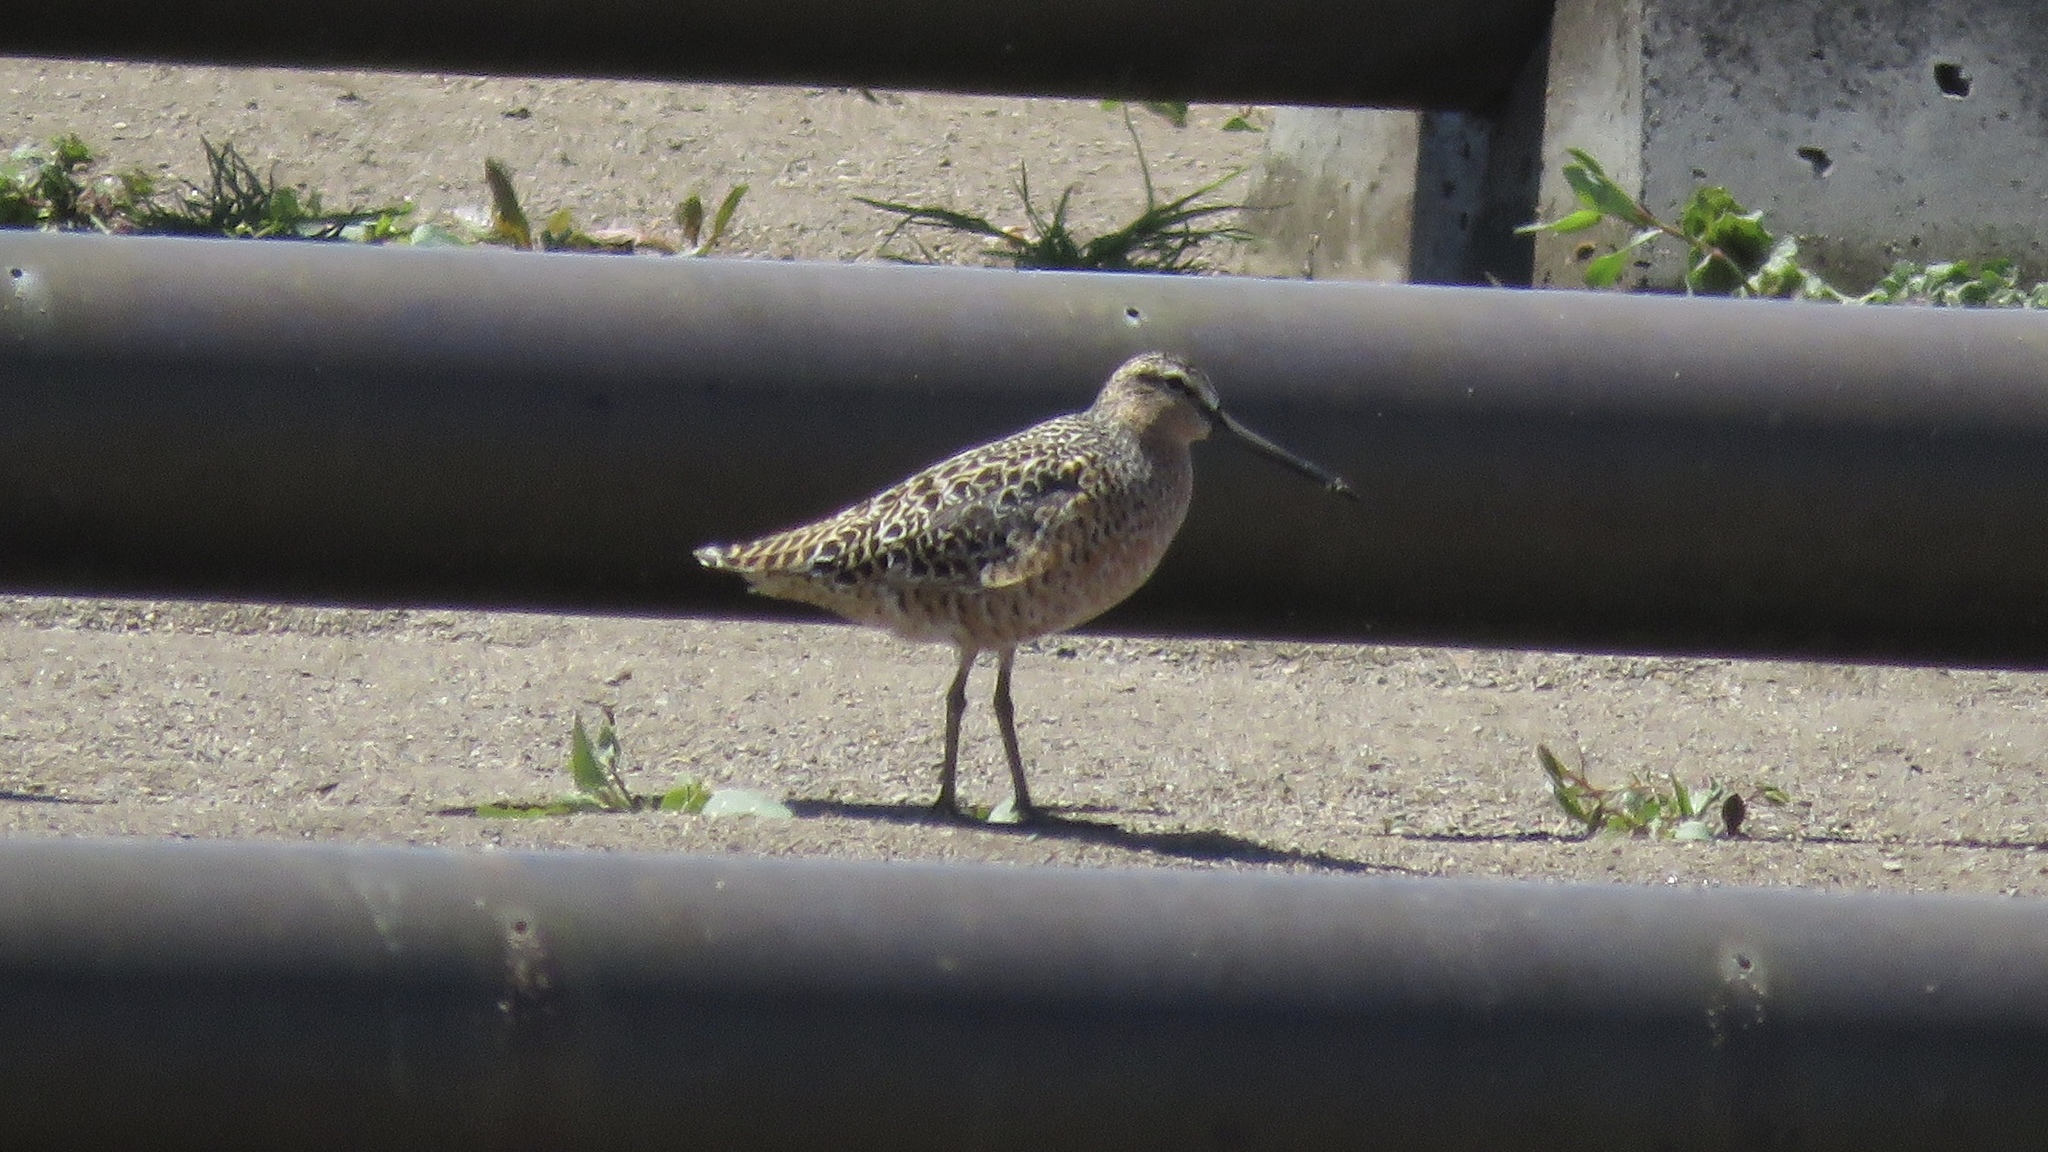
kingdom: Animalia
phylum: Chordata
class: Aves
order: Charadriiformes
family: Scolopacidae
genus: Limnodromus
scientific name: Limnodromus griseus
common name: Short-billed dowitcher
